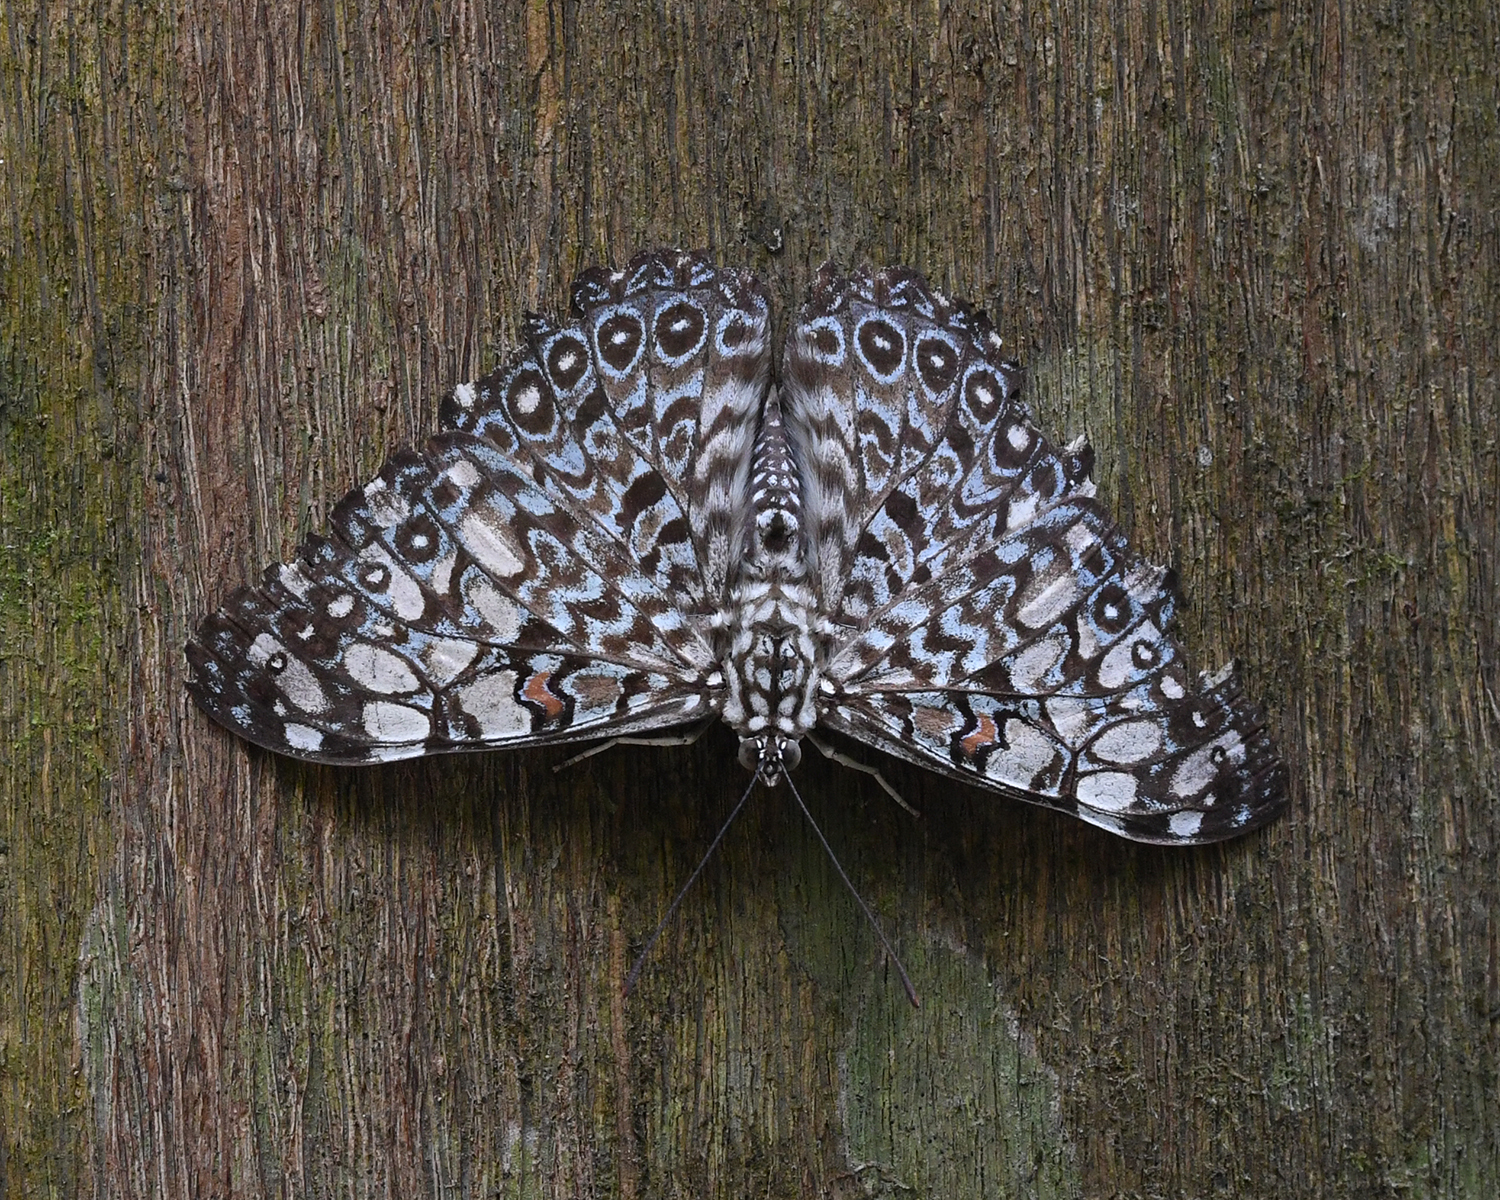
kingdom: Animalia
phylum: Arthropoda
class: Insecta
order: Lepidoptera
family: Nymphalidae
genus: Hamadryas
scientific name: Hamadryas feronia
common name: Variable cracker
